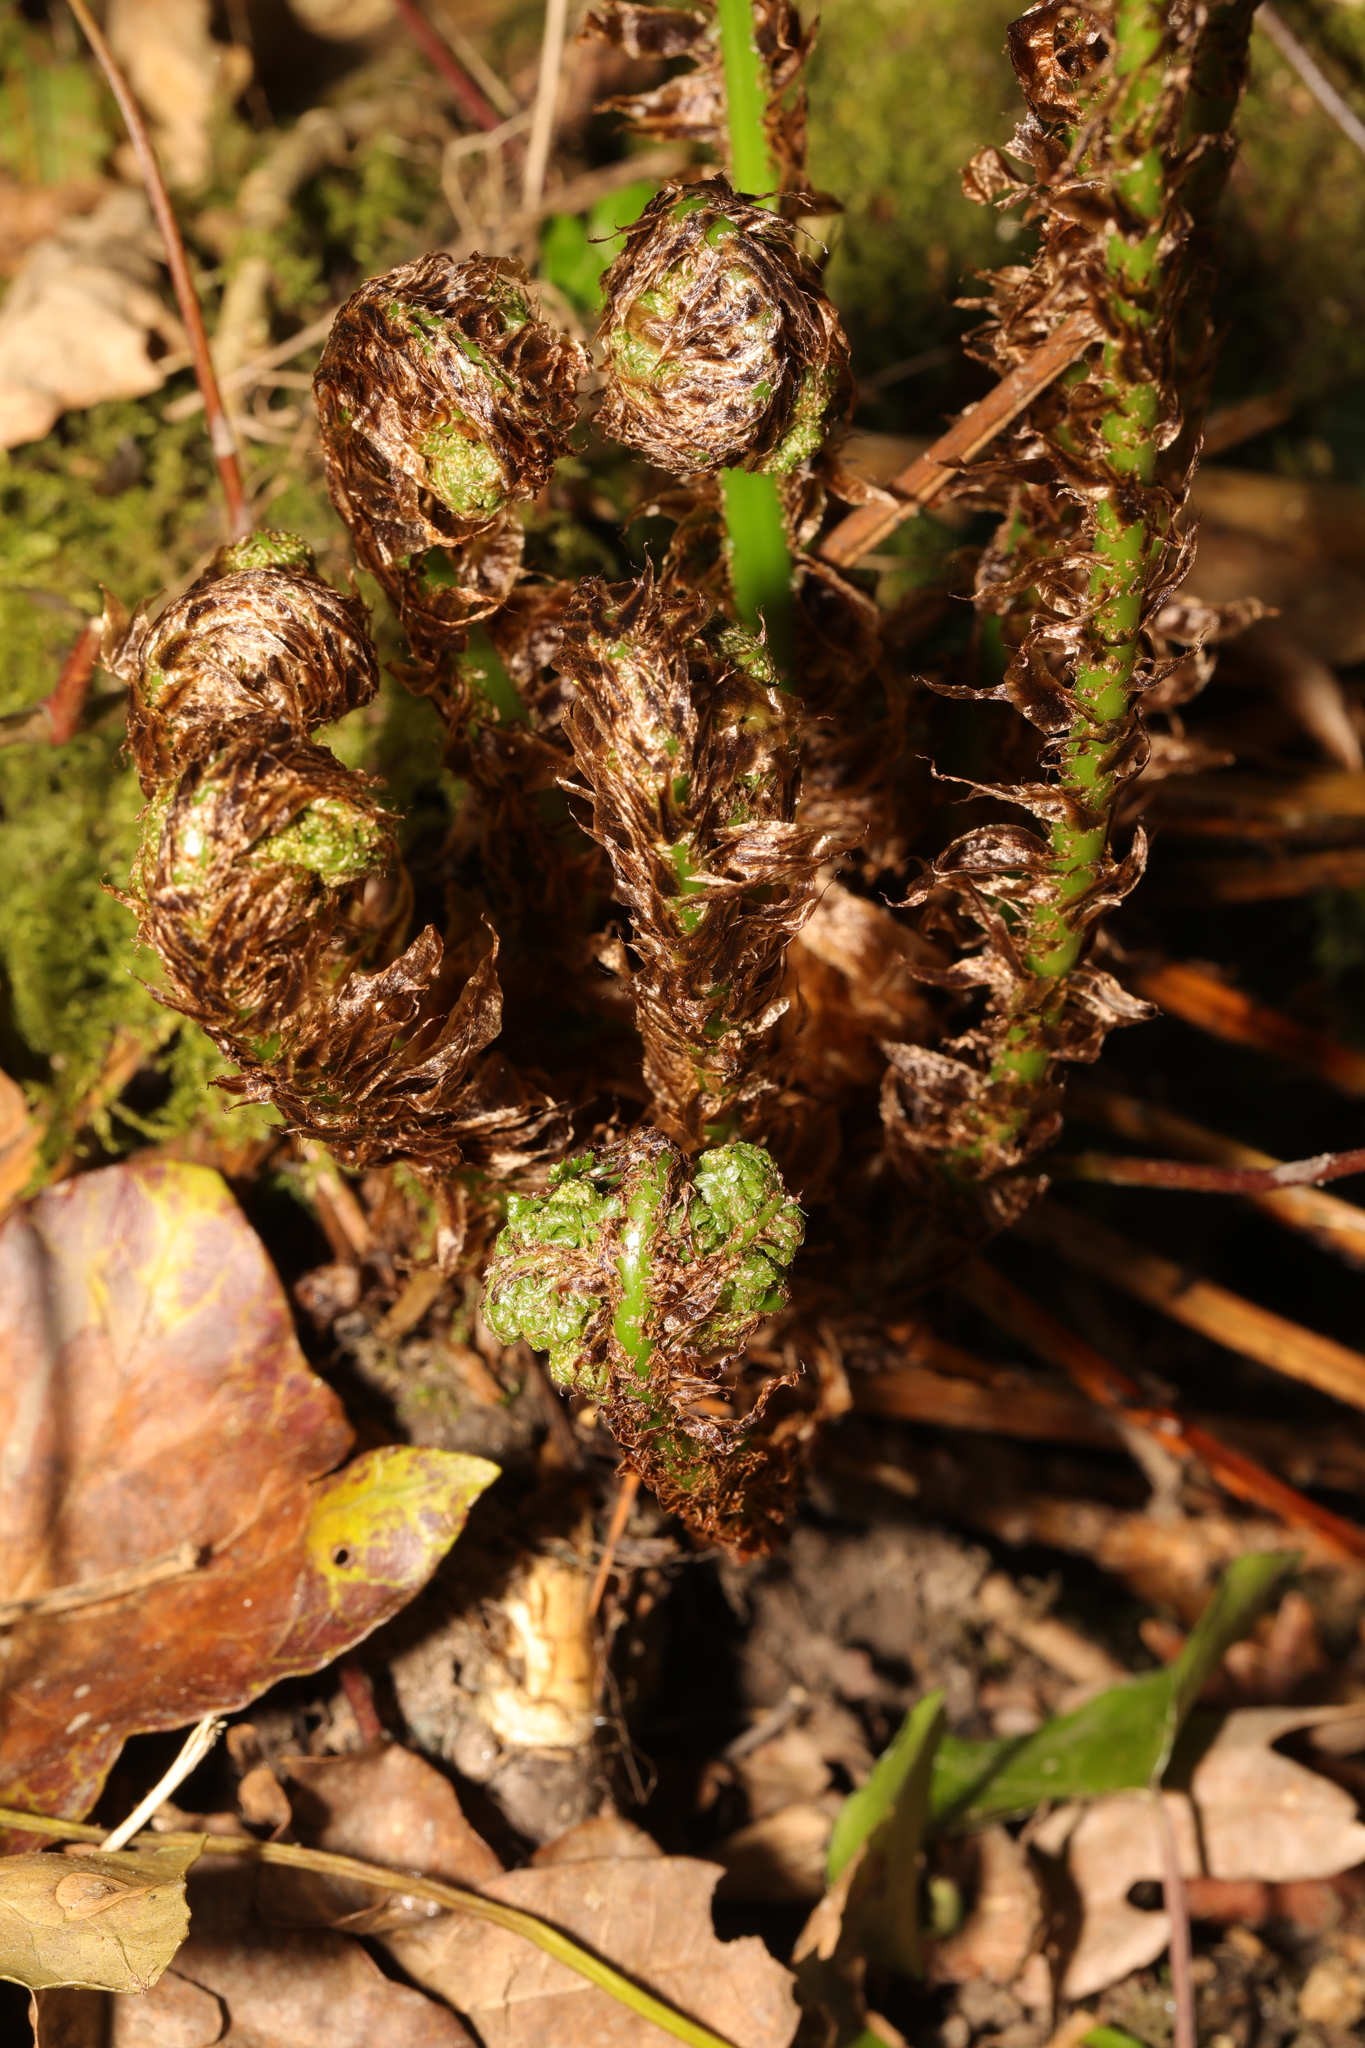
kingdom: Plantae
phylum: Tracheophyta
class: Polypodiopsida
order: Polypodiales
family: Dryopteridaceae
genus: Dryopteris
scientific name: Dryopteris dilatata
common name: Broad buckler-fern
